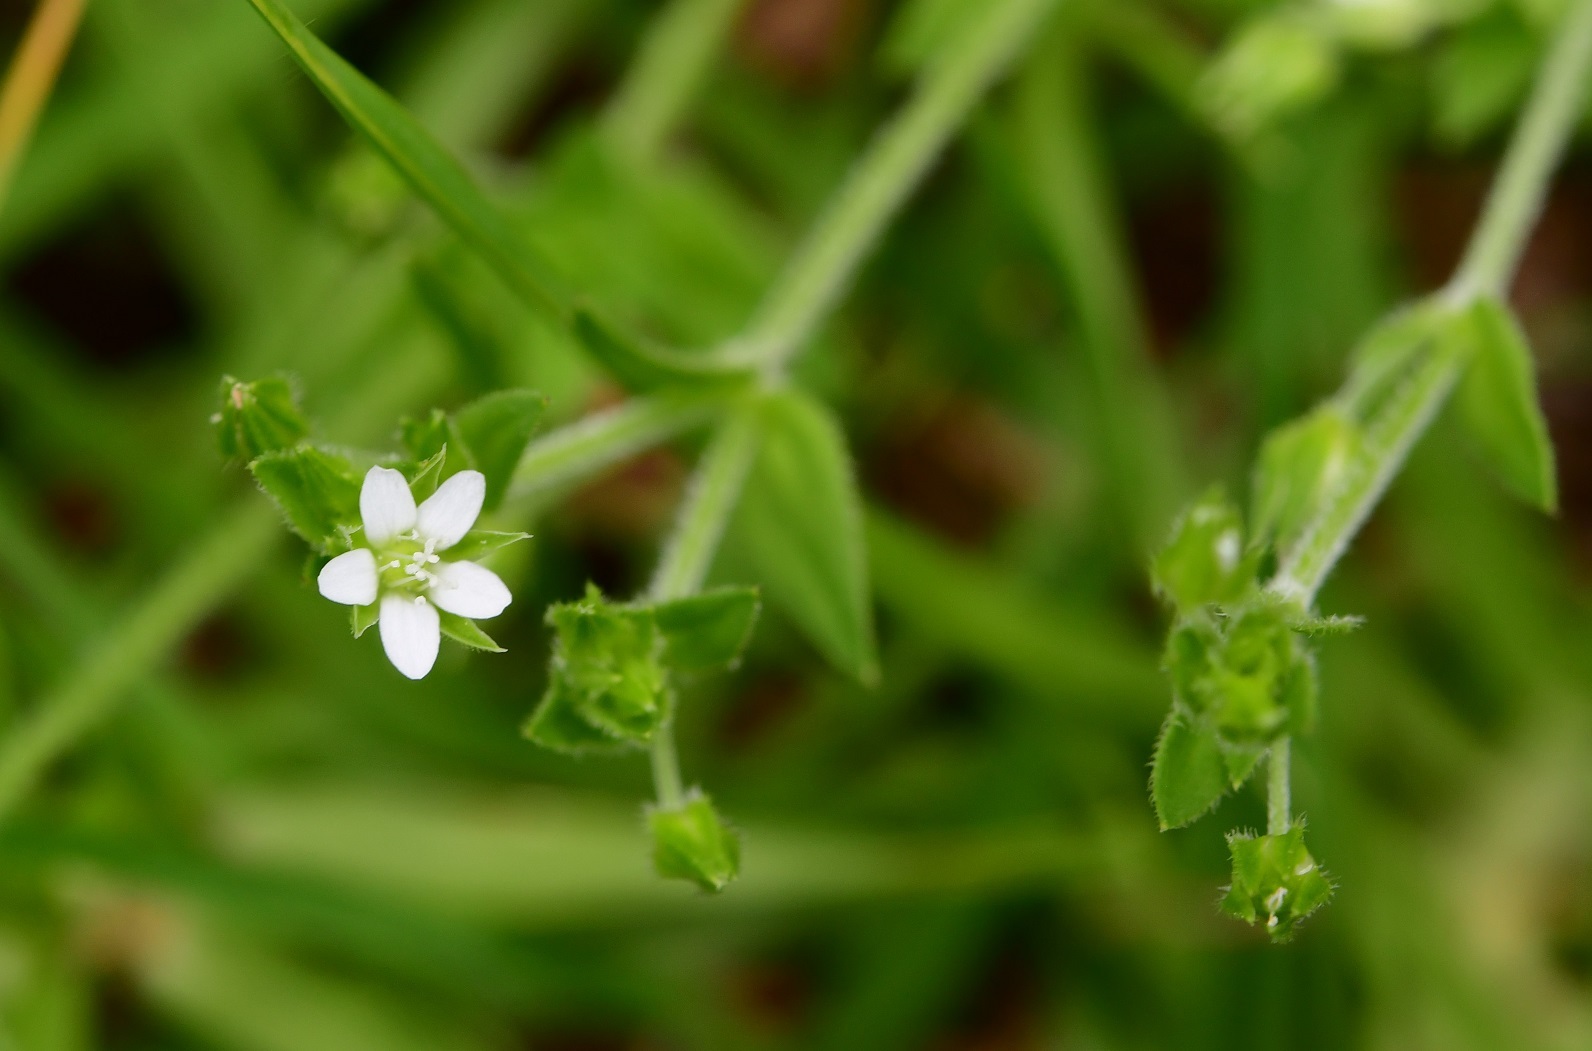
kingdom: Plantae
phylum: Tracheophyta
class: Magnoliopsida
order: Caryophyllales
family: Caryophyllaceae
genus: Arenaria
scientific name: Arenaria lanuginosa
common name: Spread sandwort
